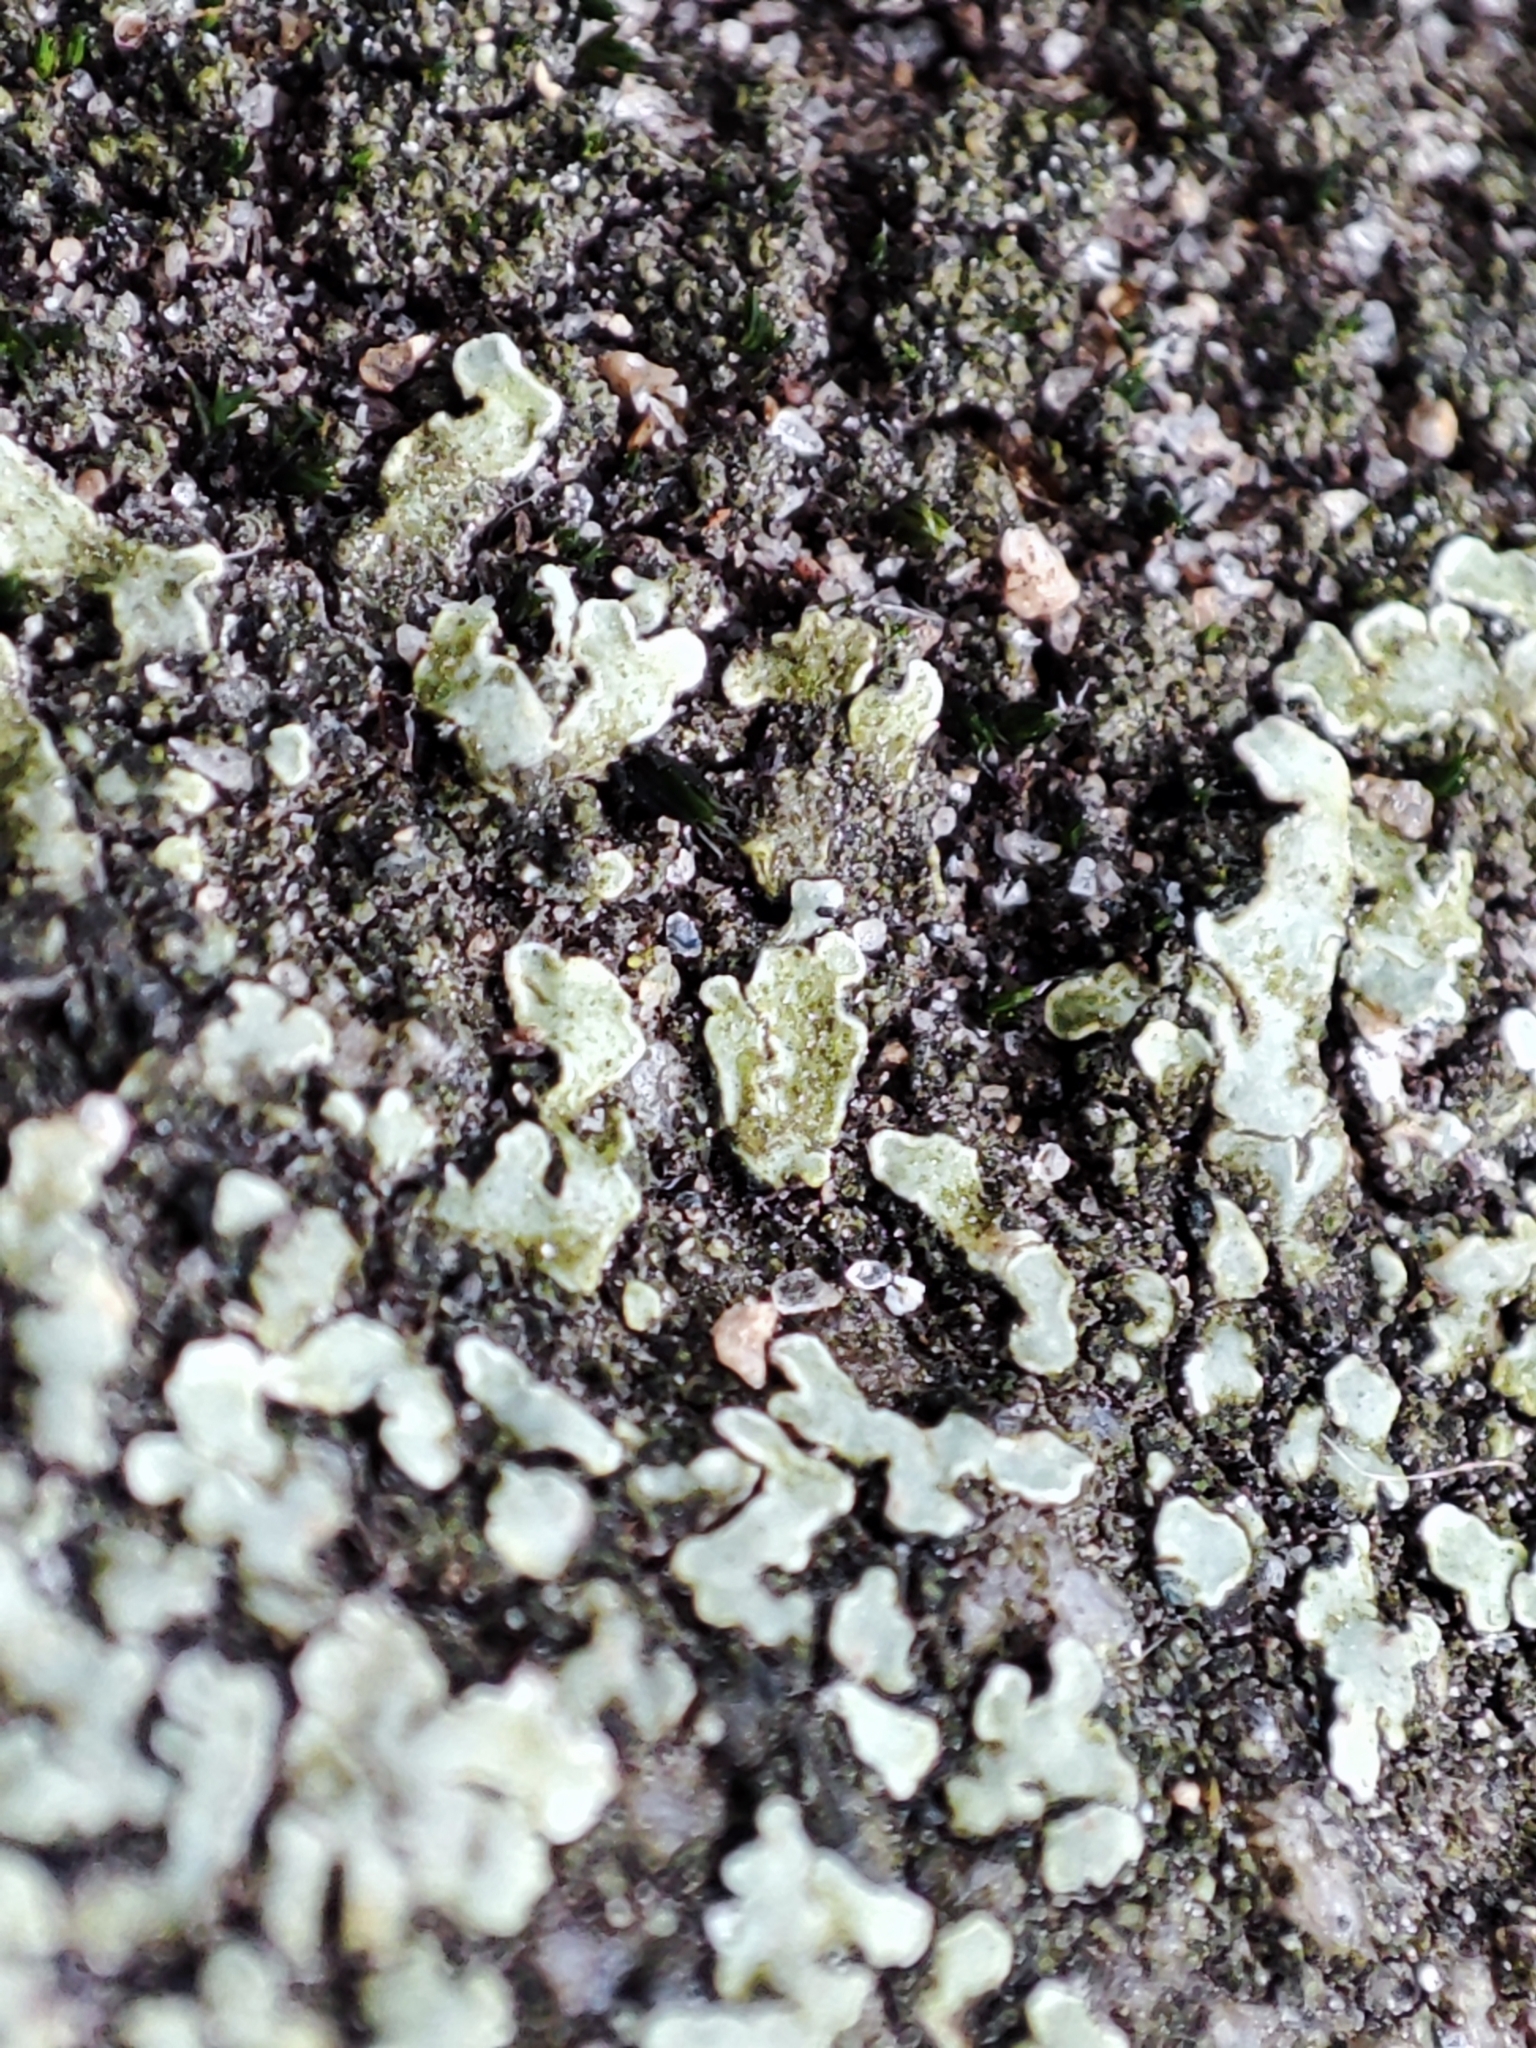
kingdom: Fungi
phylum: Ascomycota
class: Lecanoromycetes
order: Lecanorales
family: Lecanoraceae
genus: Protoparmeliopsis
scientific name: Protoparmeliopsis muralis
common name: Stonewall rim lichen
